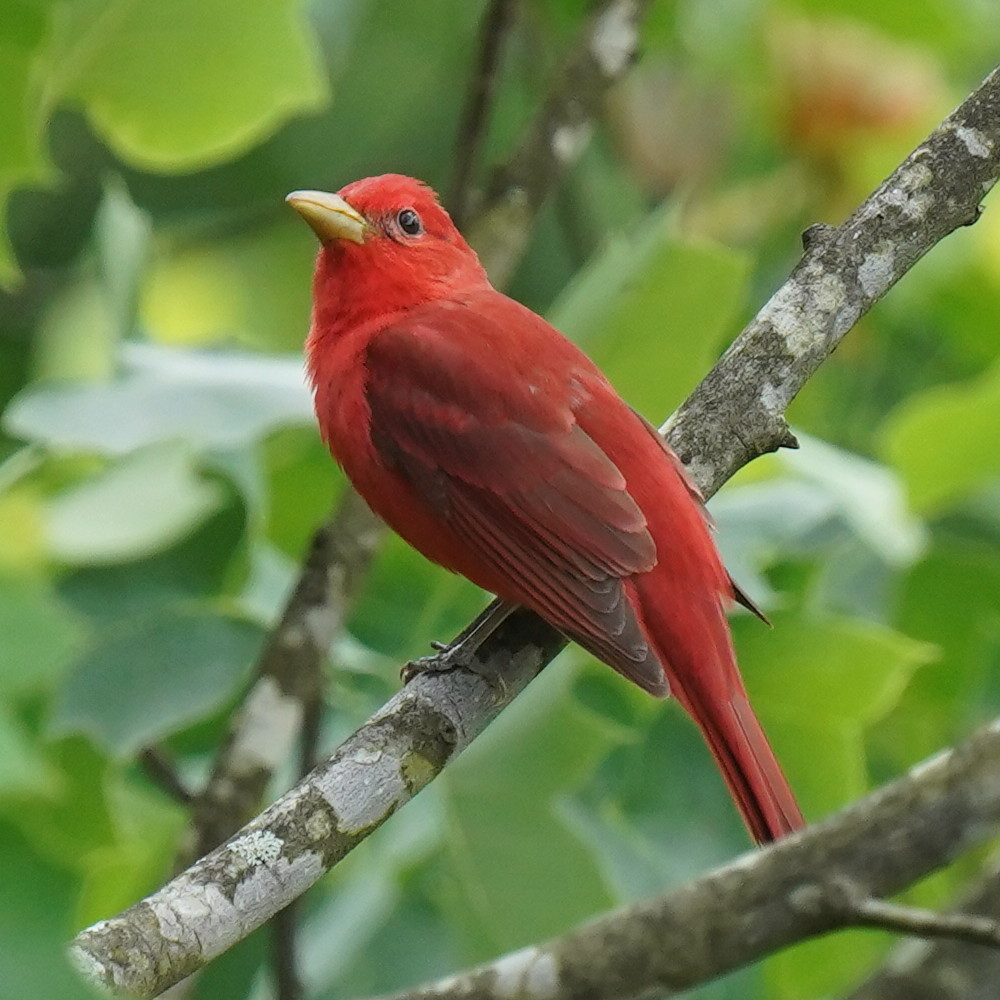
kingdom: Animalia
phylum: Chordata
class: Aves
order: Passeriformes
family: Cardinalidae
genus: Piranga
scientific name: Piranga rubra
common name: Summer tanager
